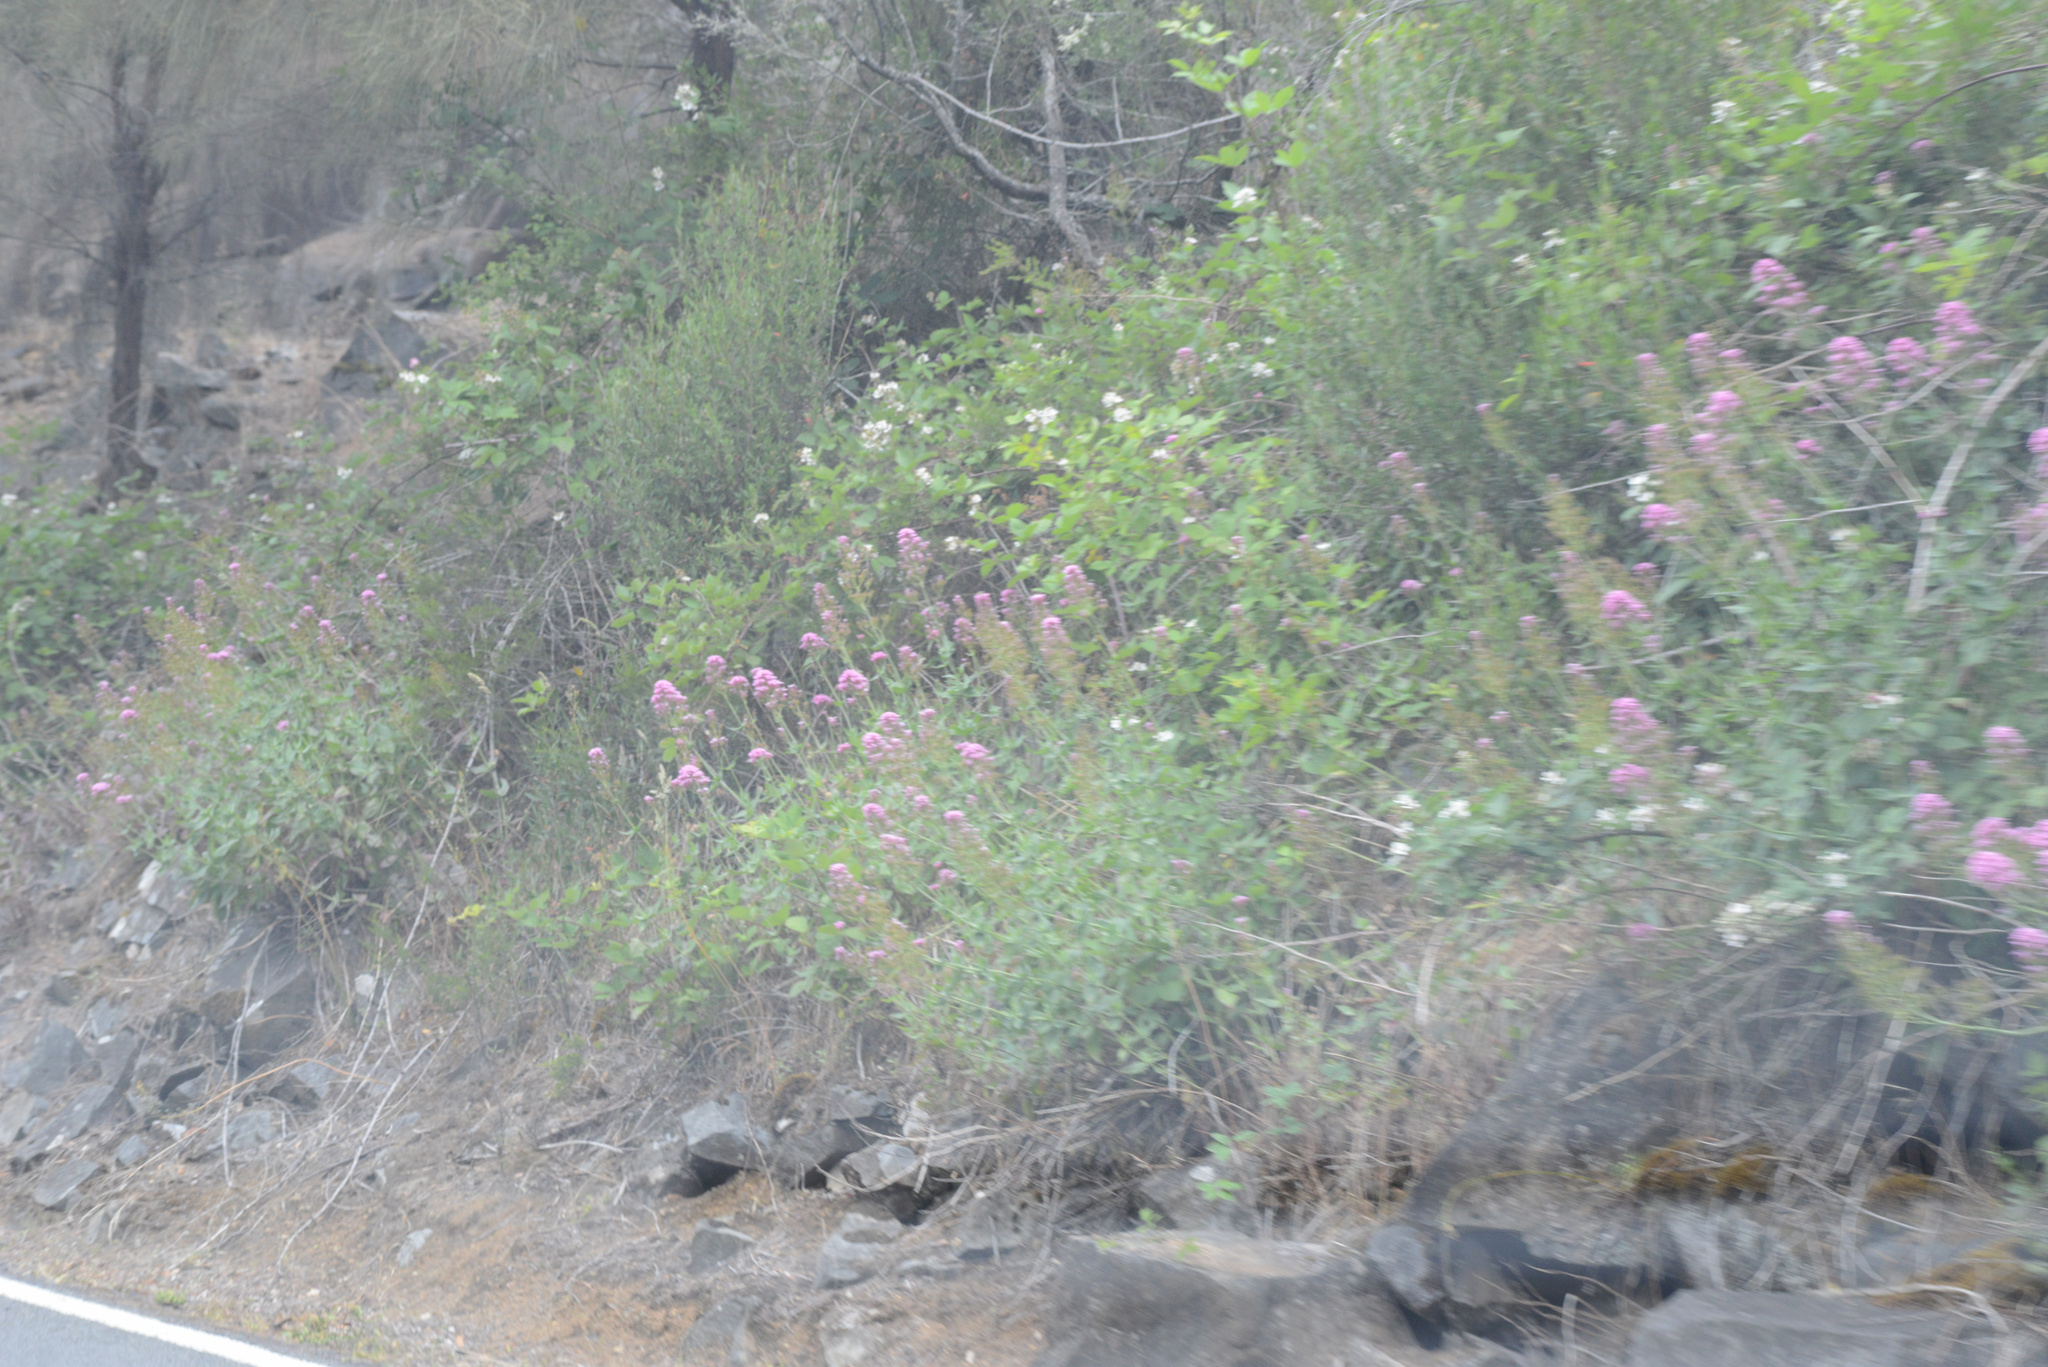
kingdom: Plantae
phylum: Tracheophyta
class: Magnoliopsida
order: Dipsacales
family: Caprifoliaceae
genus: Centranthus
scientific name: Centranthus ruber
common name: Red valerian
